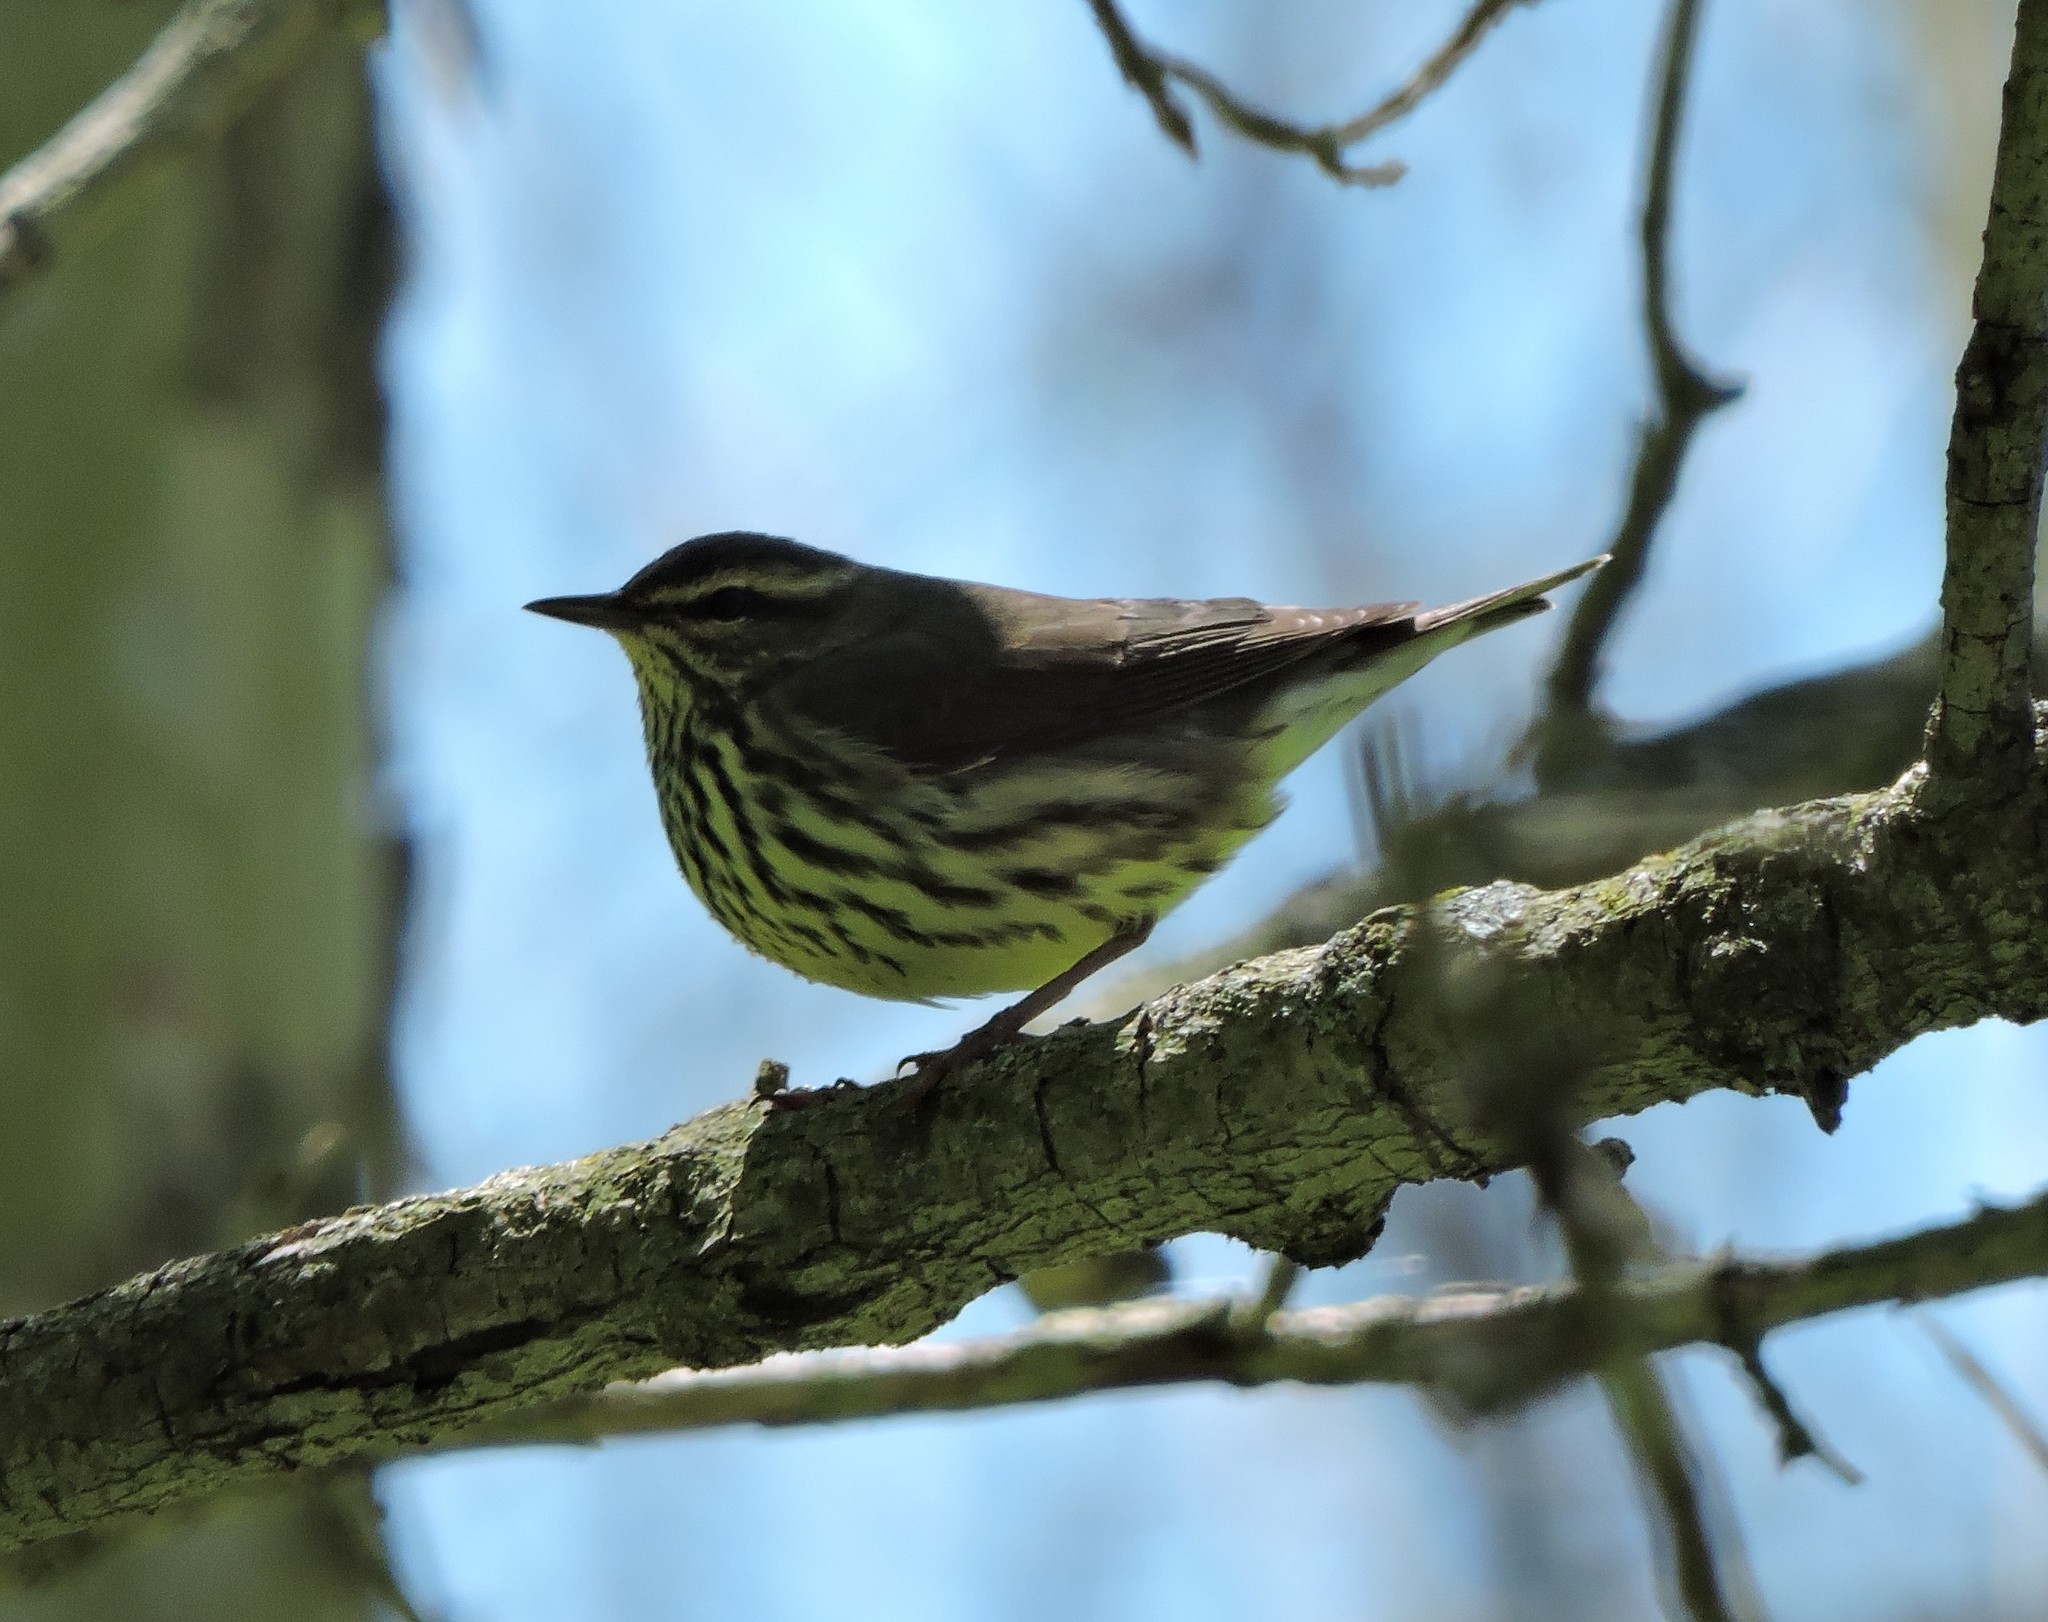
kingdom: Animalia
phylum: Chordata
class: Aves
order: Passeriformes
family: Parulidae
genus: Parkesia
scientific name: Parkesia noveboracensis
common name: Northern waterthrush
